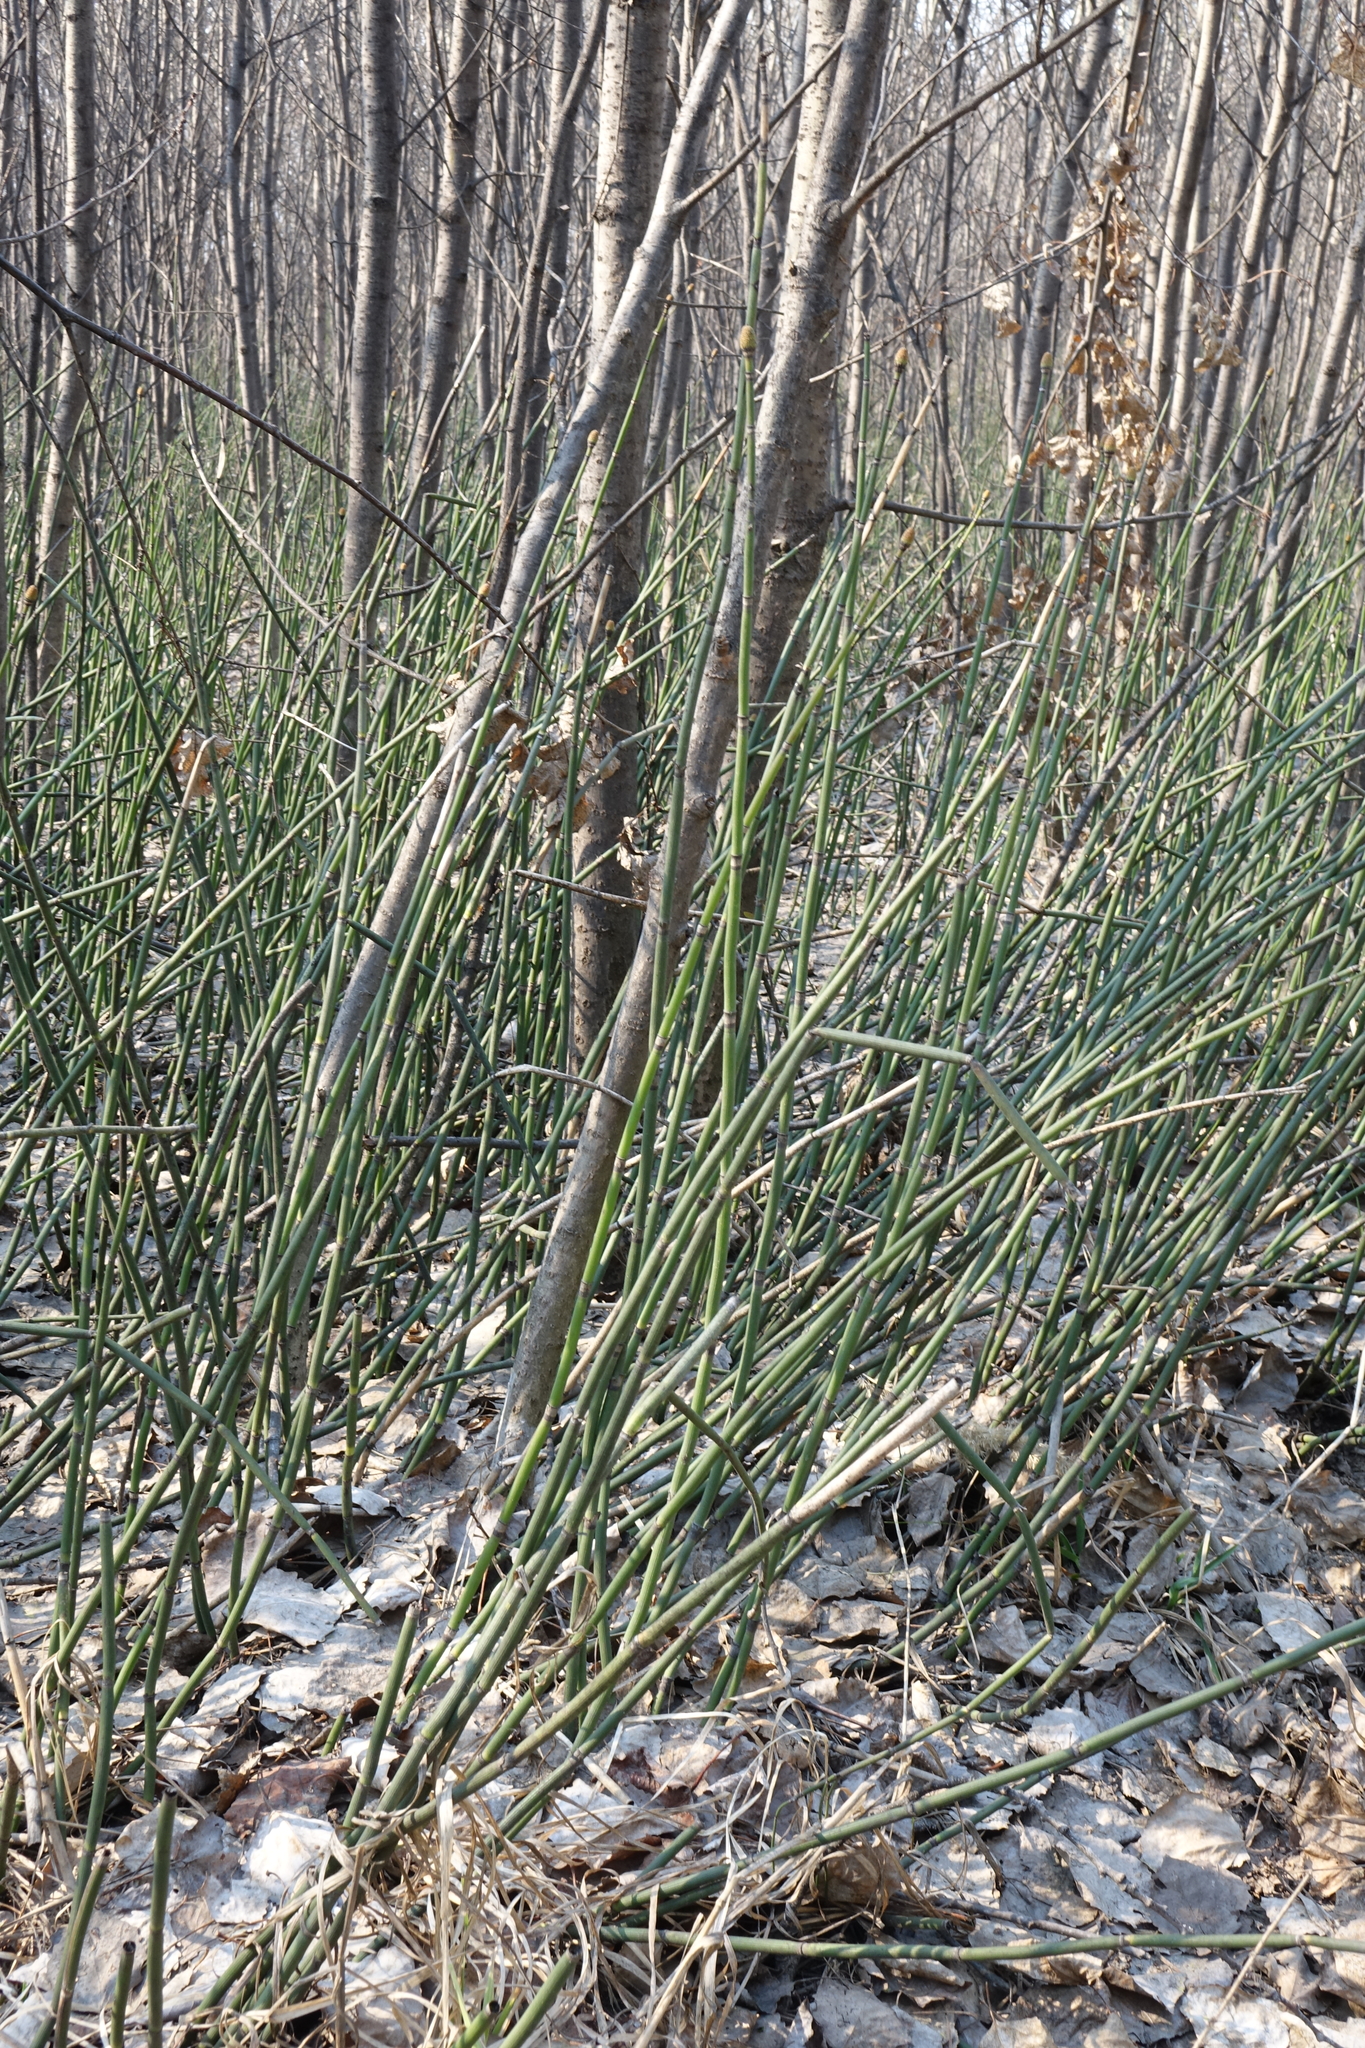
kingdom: Plantae
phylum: Tracheophyta
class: Polypodiopsida
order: Equisetales
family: Equisetaceae
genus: Equisetum
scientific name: Equisetum hyemale
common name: Rough horsetail
